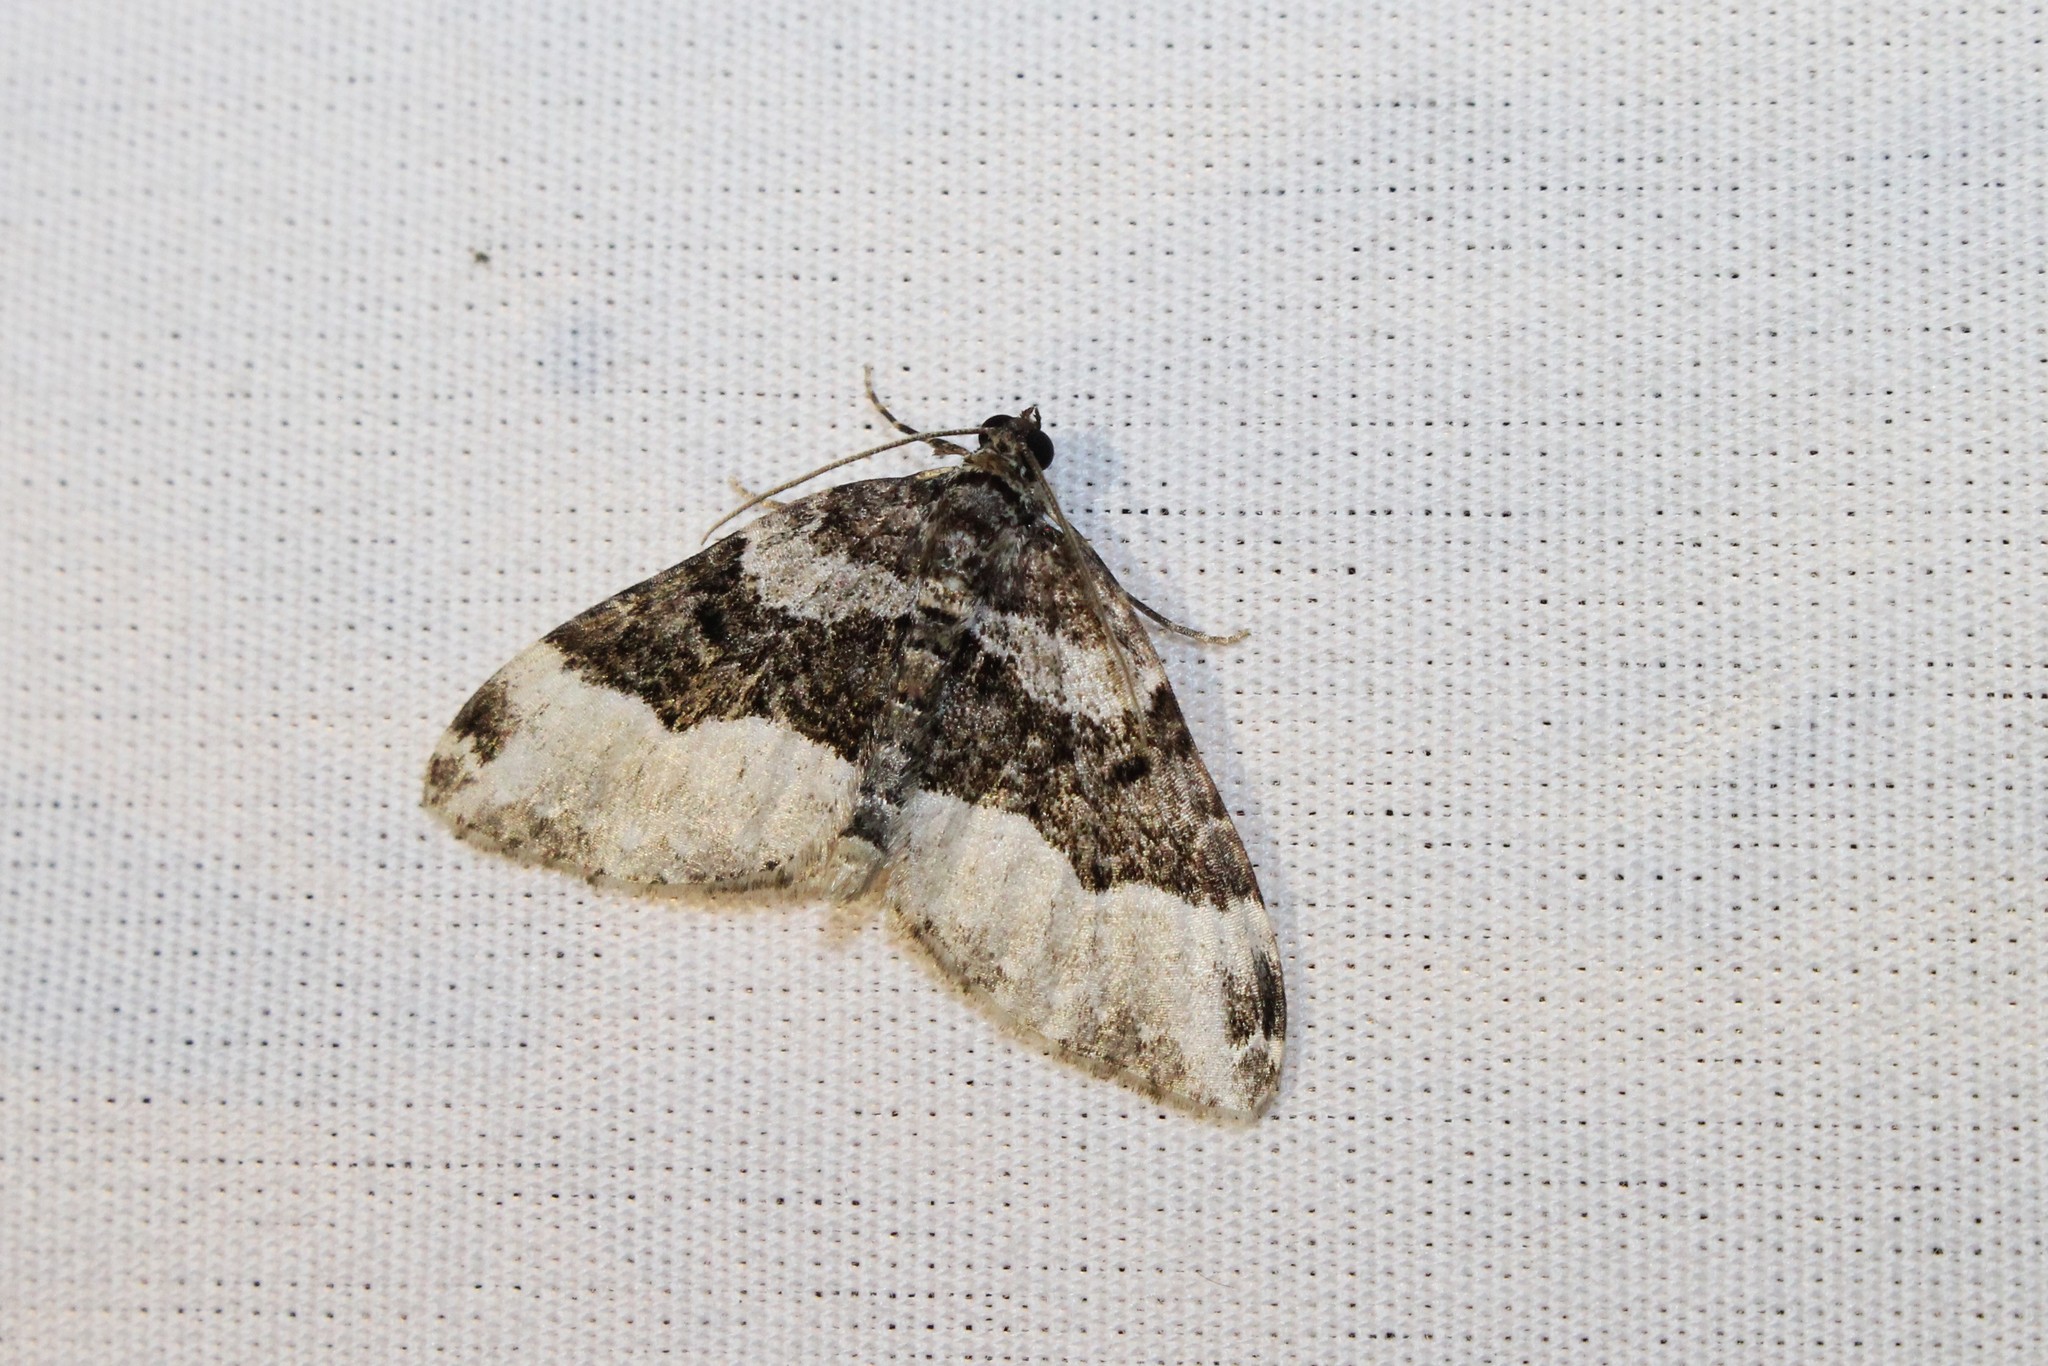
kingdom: Animalia
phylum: Arthropoda
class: Insecta
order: Lepidoptera
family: Geometridae
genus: Euphyia
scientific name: Euphyia intermediata
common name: Sharp-angled carpet
